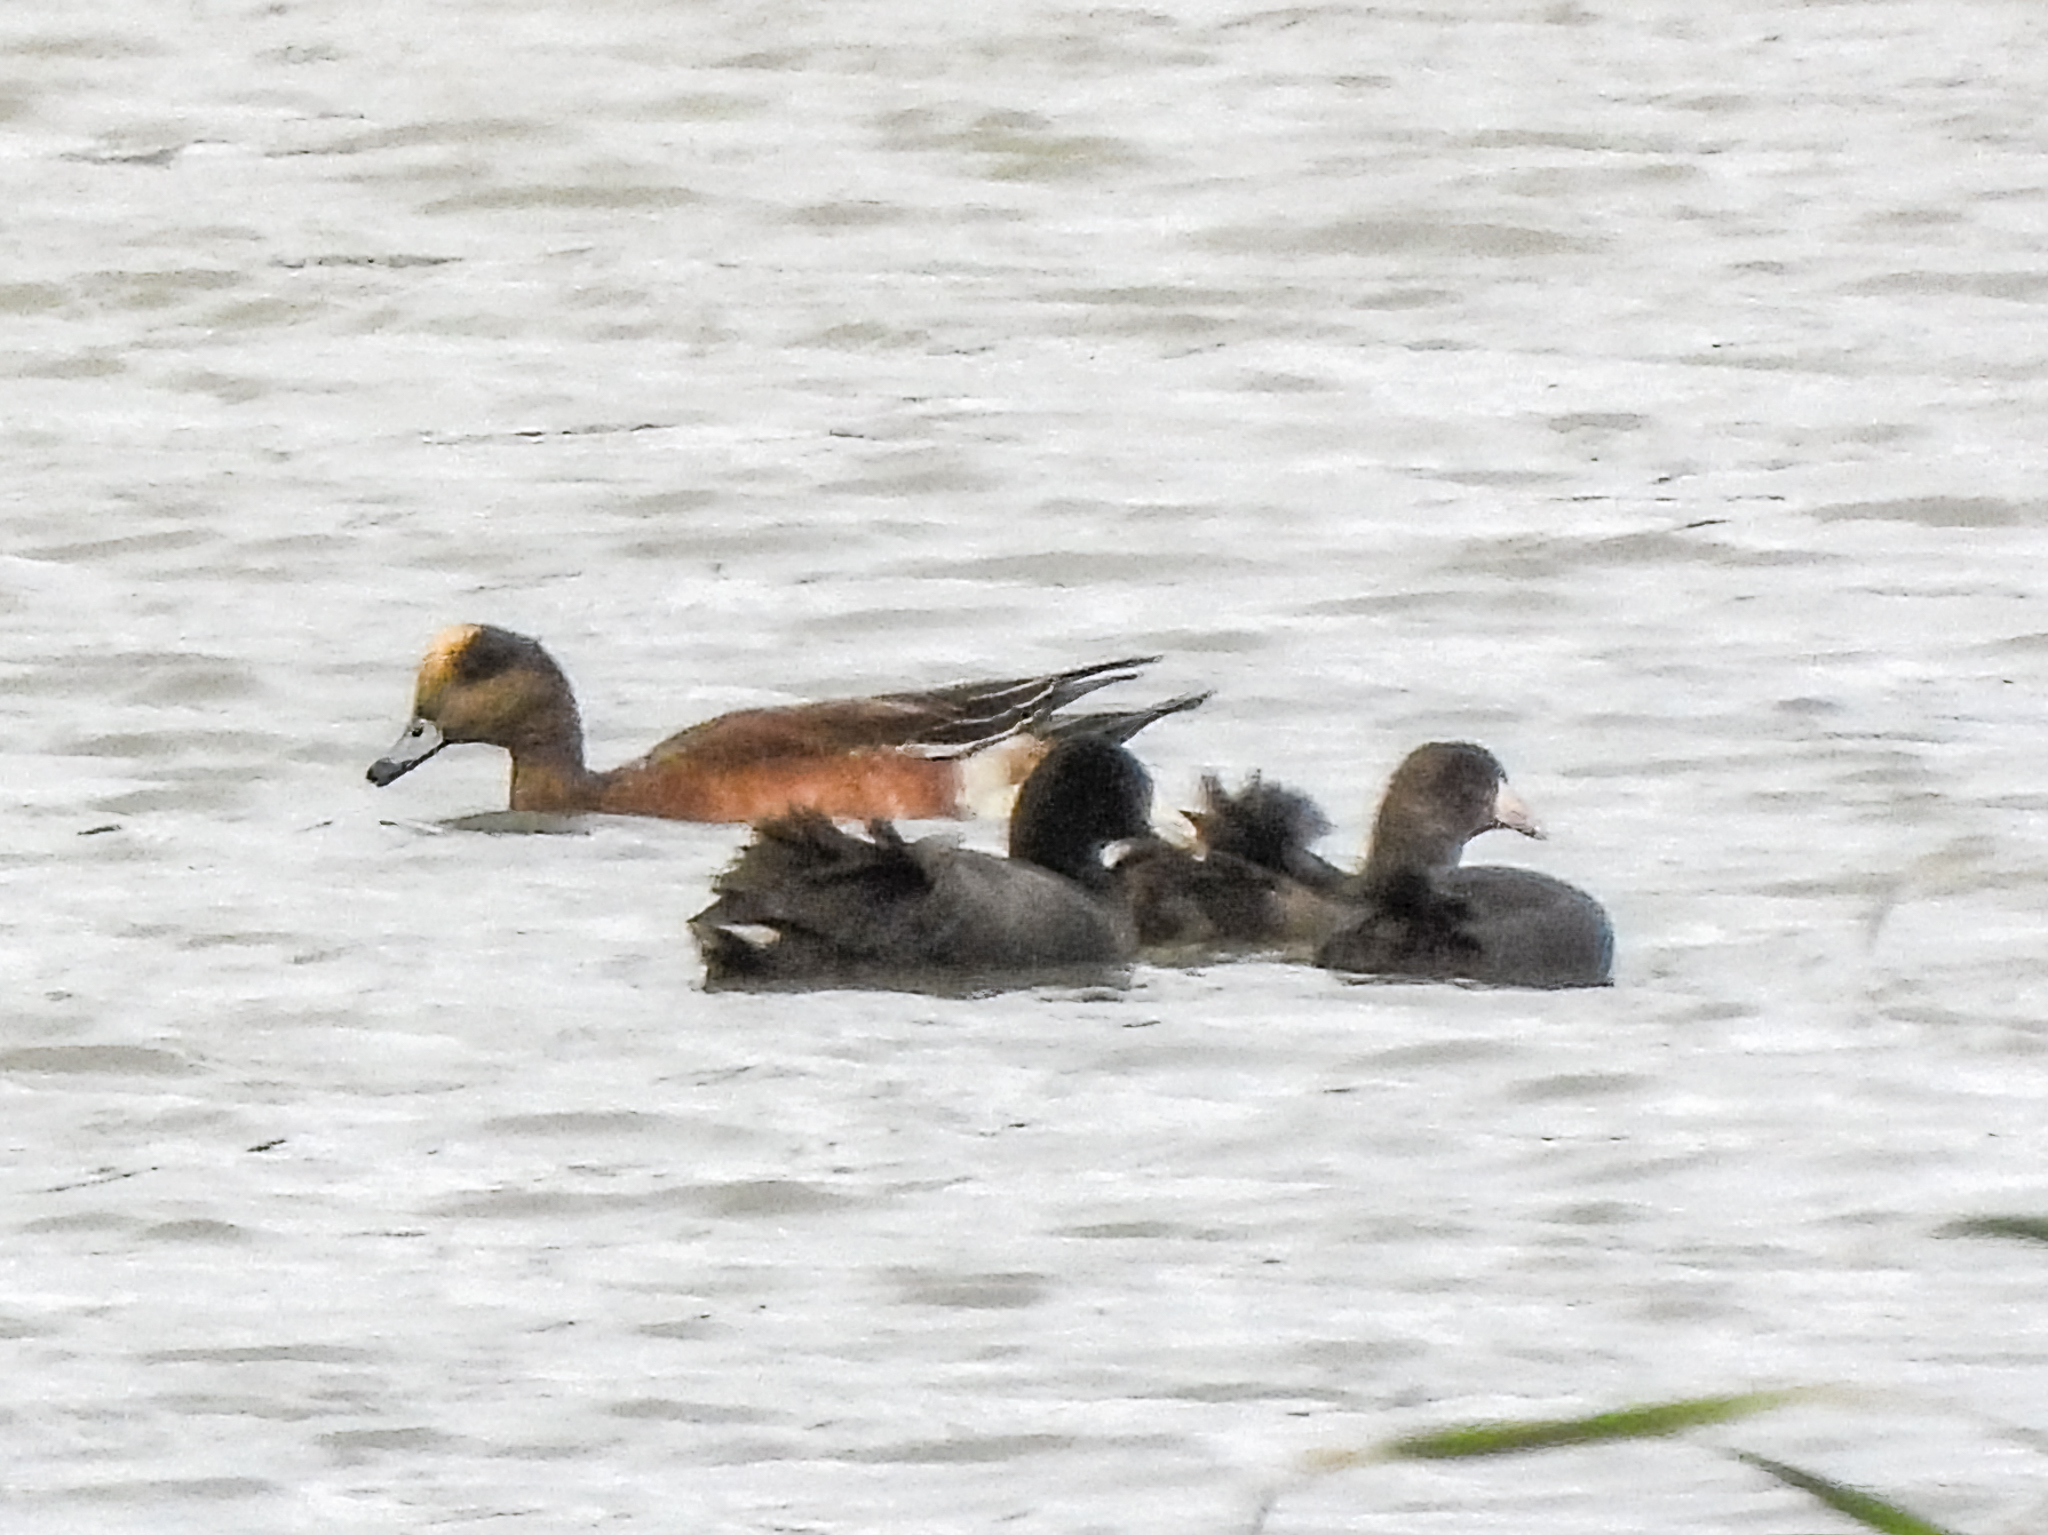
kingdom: Animalia
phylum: Chordata
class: Aves
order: Anseriformes
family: Anatidae
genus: Mareca
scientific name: Mareca americana
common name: American wigeon
